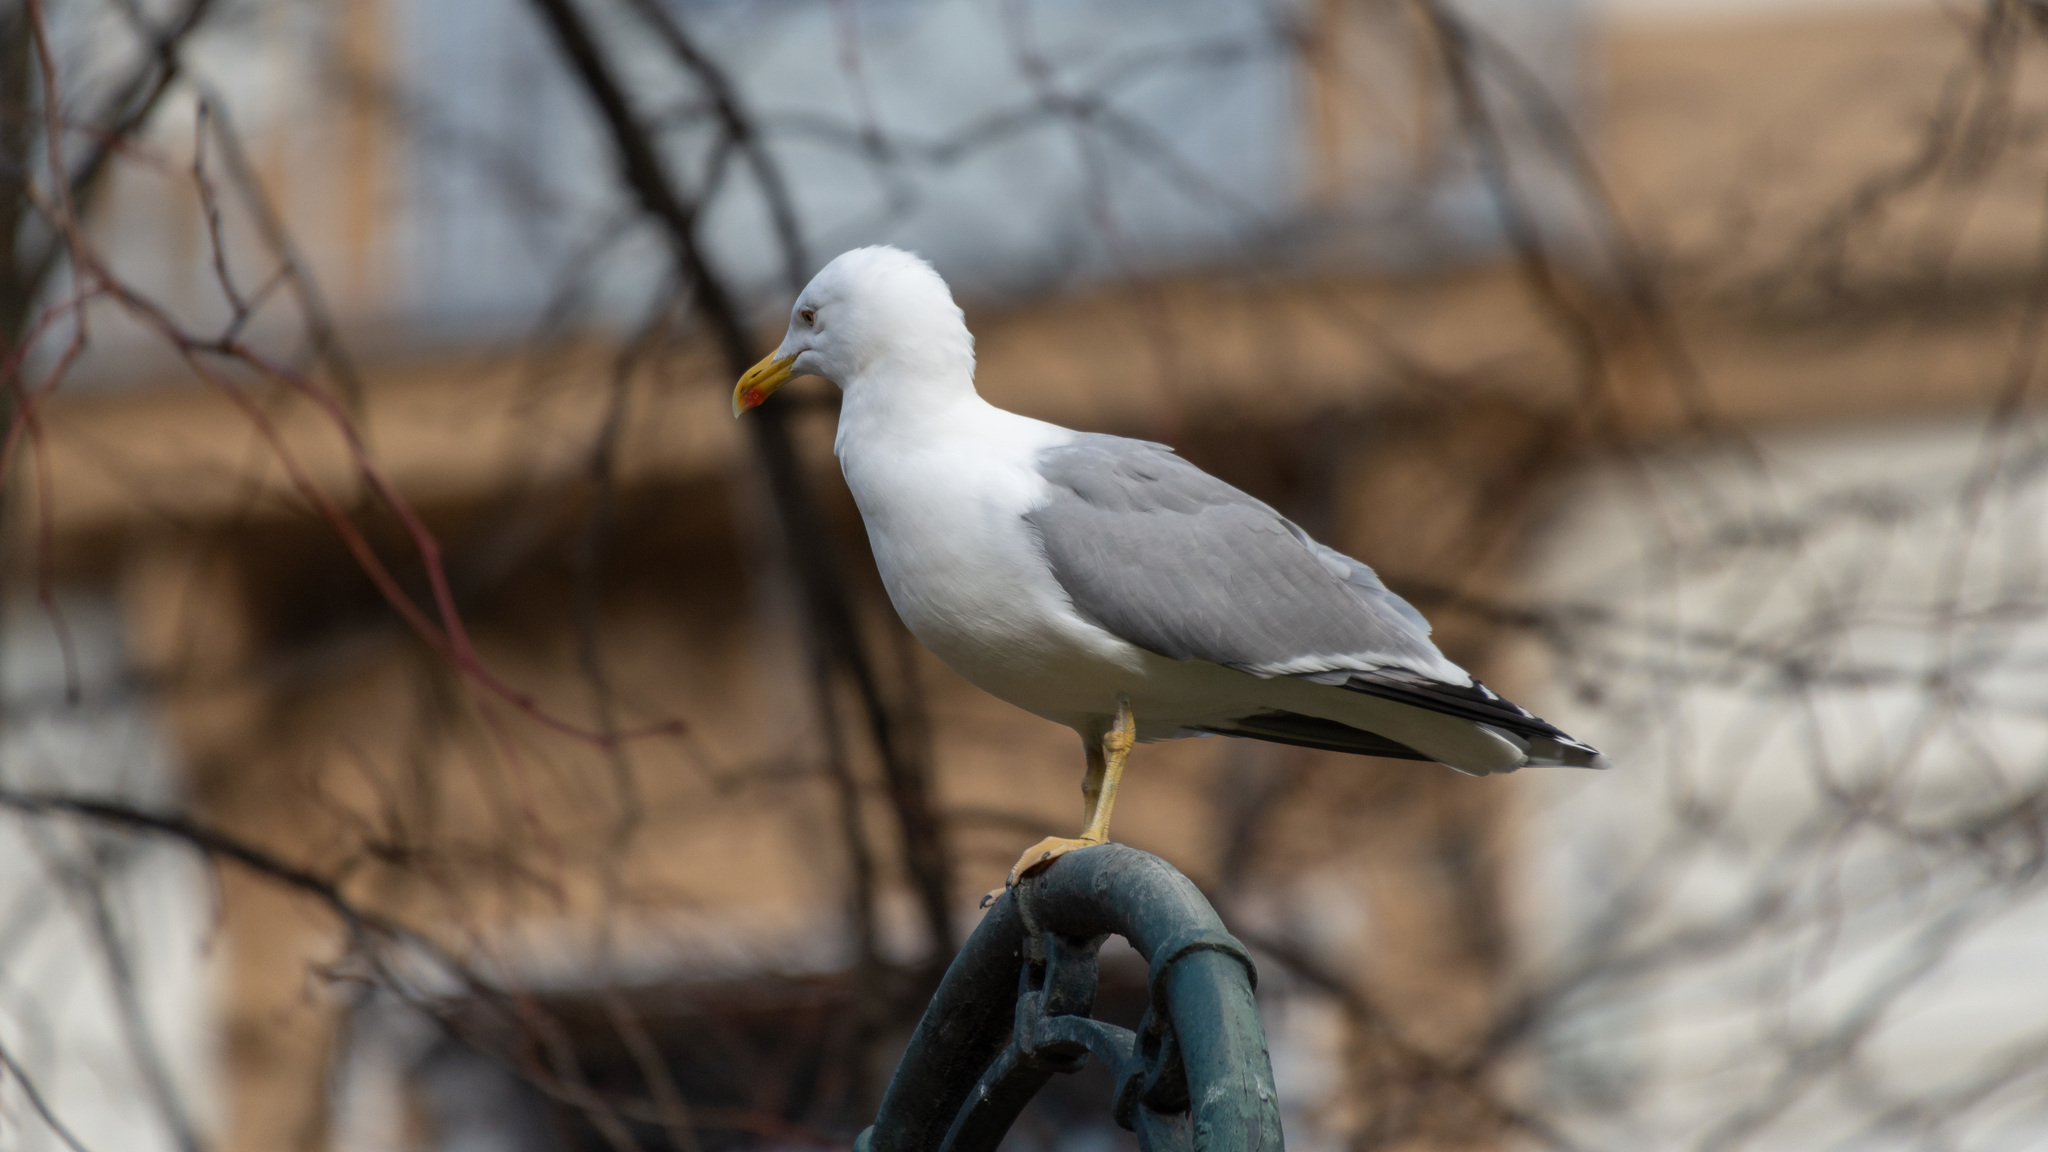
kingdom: Animalia
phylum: Chordata
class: Aves
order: Charadriiformes
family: Laridae
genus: Larus
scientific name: Larus michahellis
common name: Yellow-legged gull
